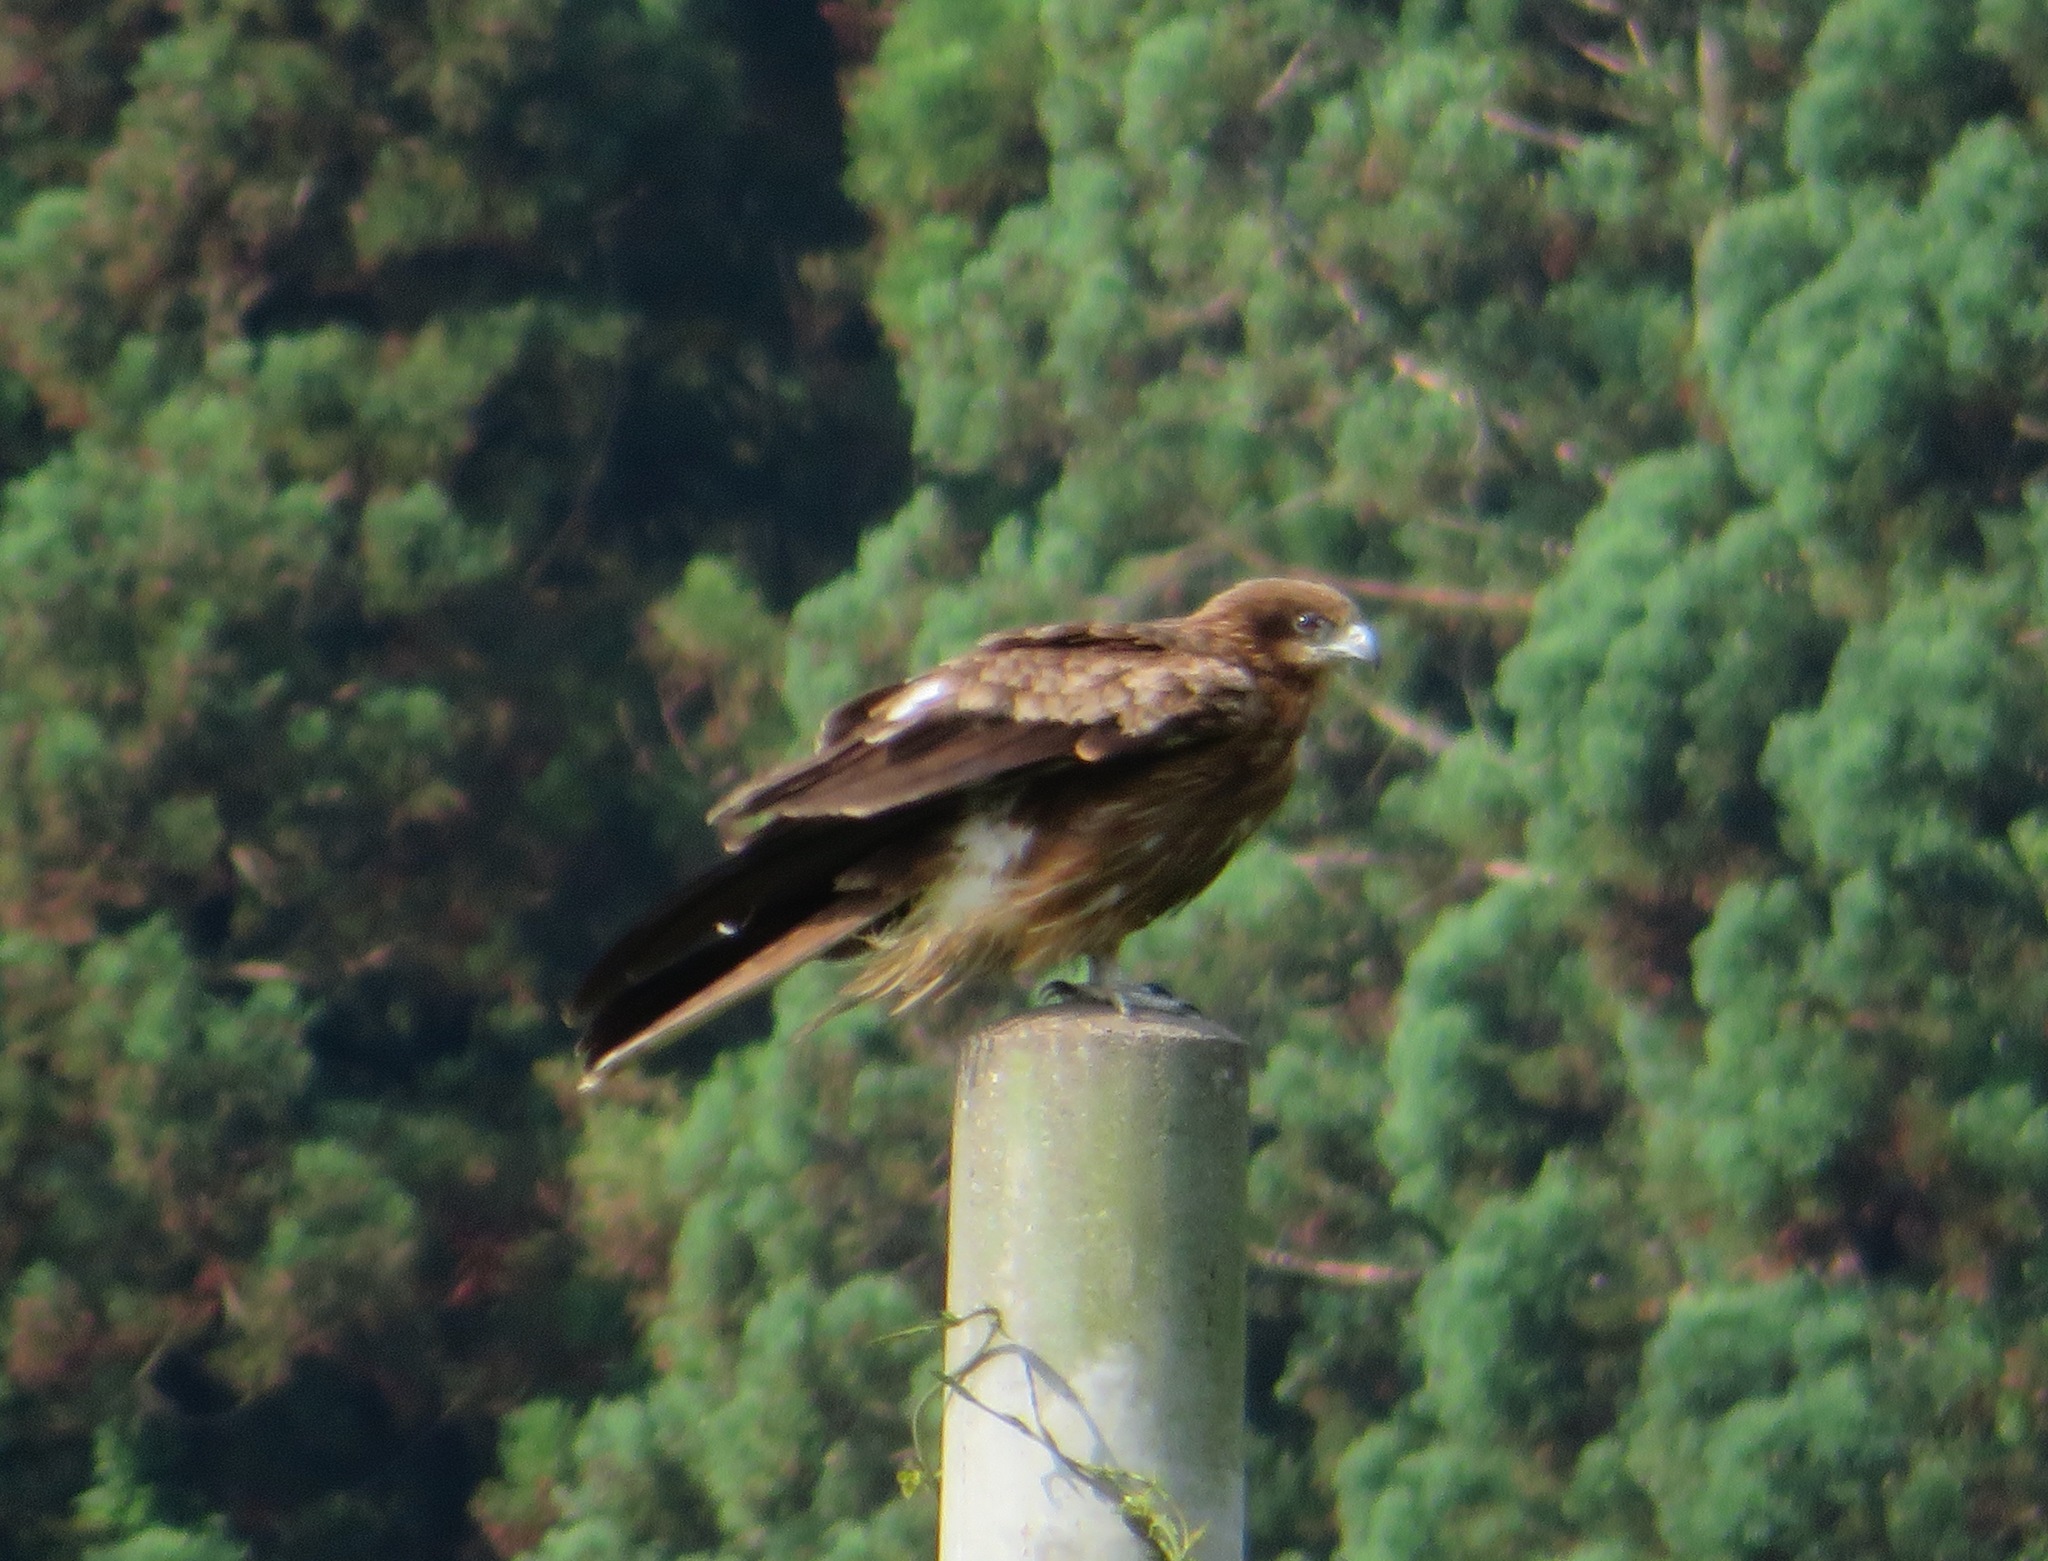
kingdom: Animalia
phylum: Chordata
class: Aves
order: Accipitriformes
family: Accipitridae
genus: Milvus
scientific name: Milvus migrans
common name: Black kite
